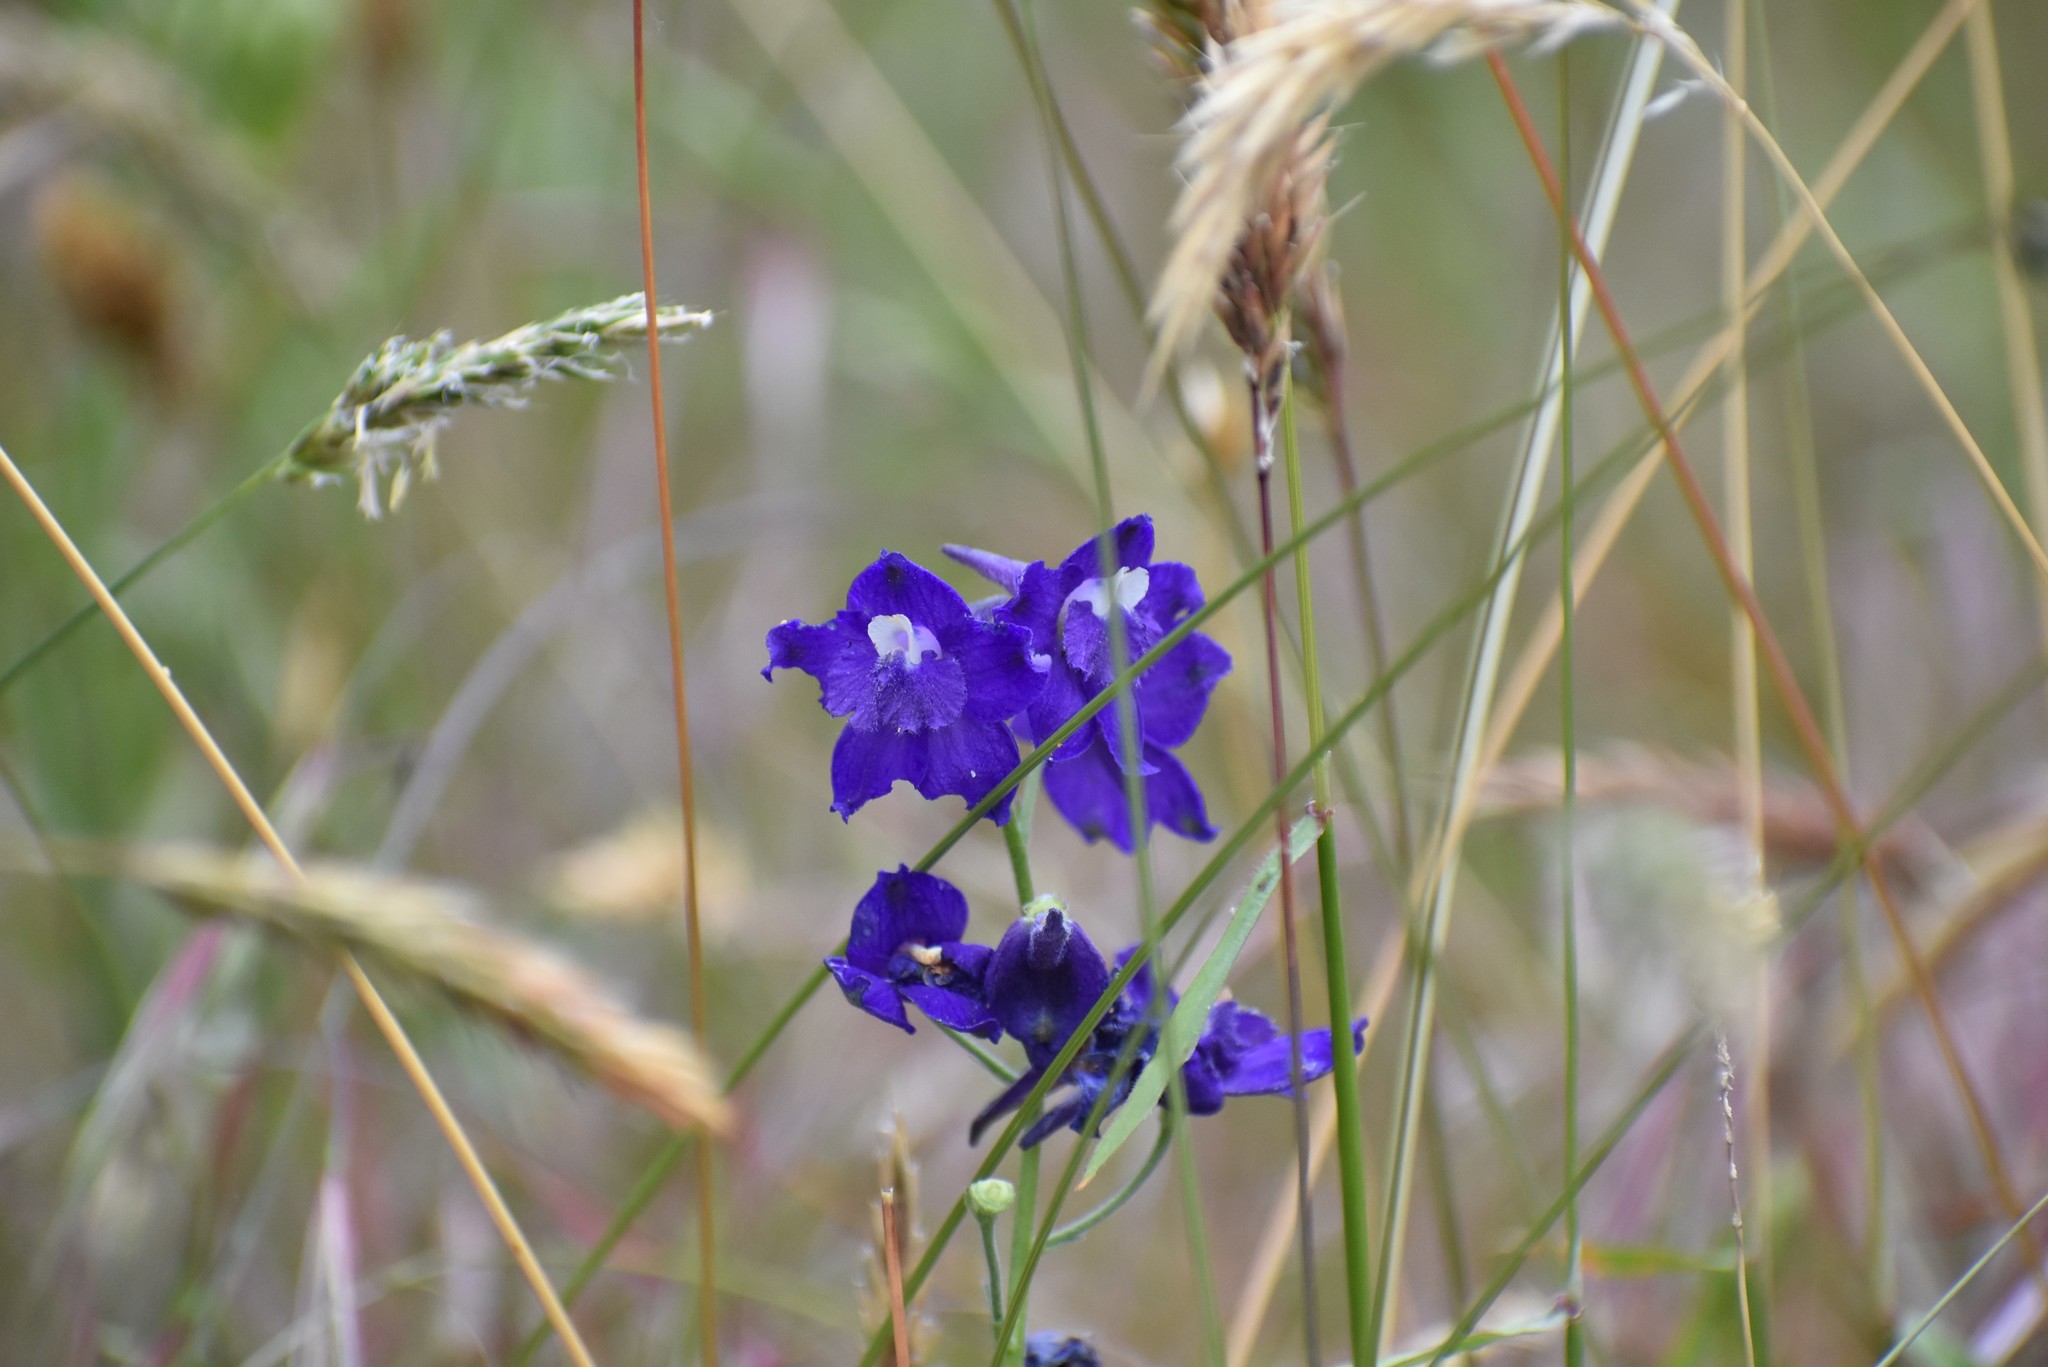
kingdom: Plantae
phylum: Tracheophyta
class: Magnoliopsida
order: Ranunculales
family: Ranunculaceae
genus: Delphinium
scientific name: Delphinium menziesii
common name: Menzies's larkspur
